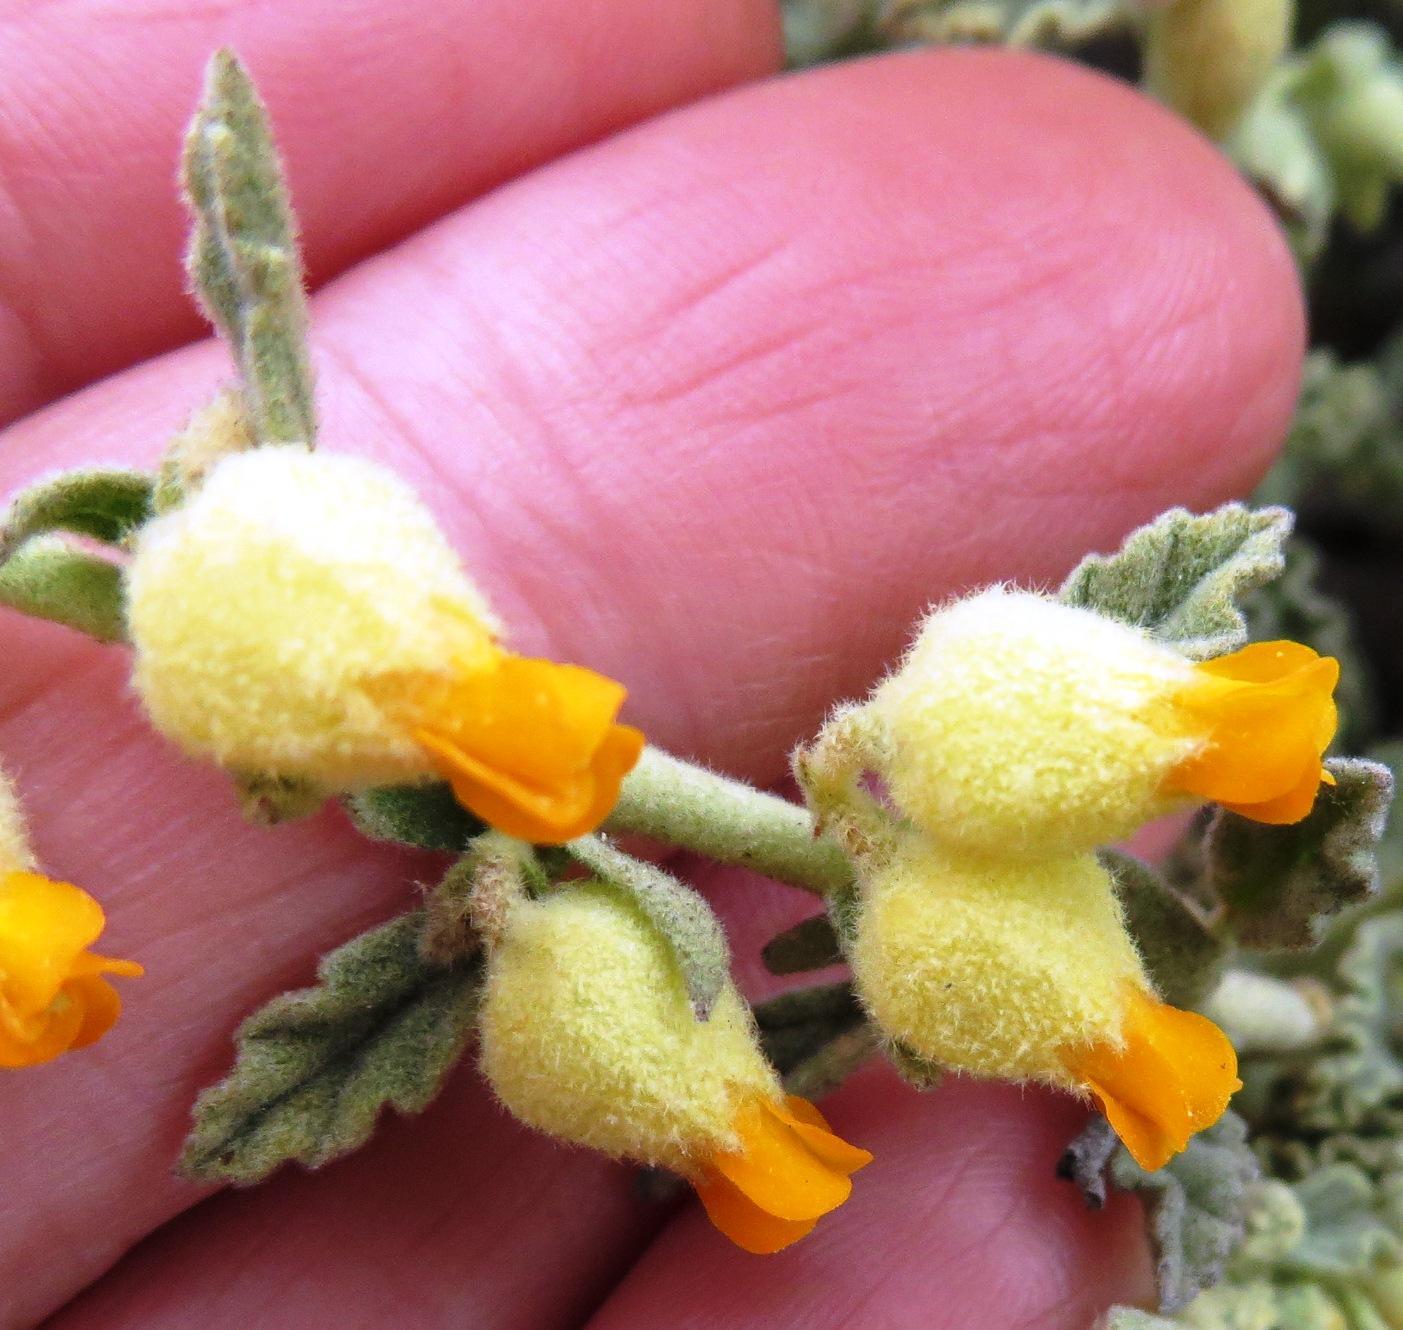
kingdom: Plantae
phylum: Tracheophyta
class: Magnoliopsida
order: Malvales
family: Malvaceae
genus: Hermannia
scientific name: Hermannia johanssenii
